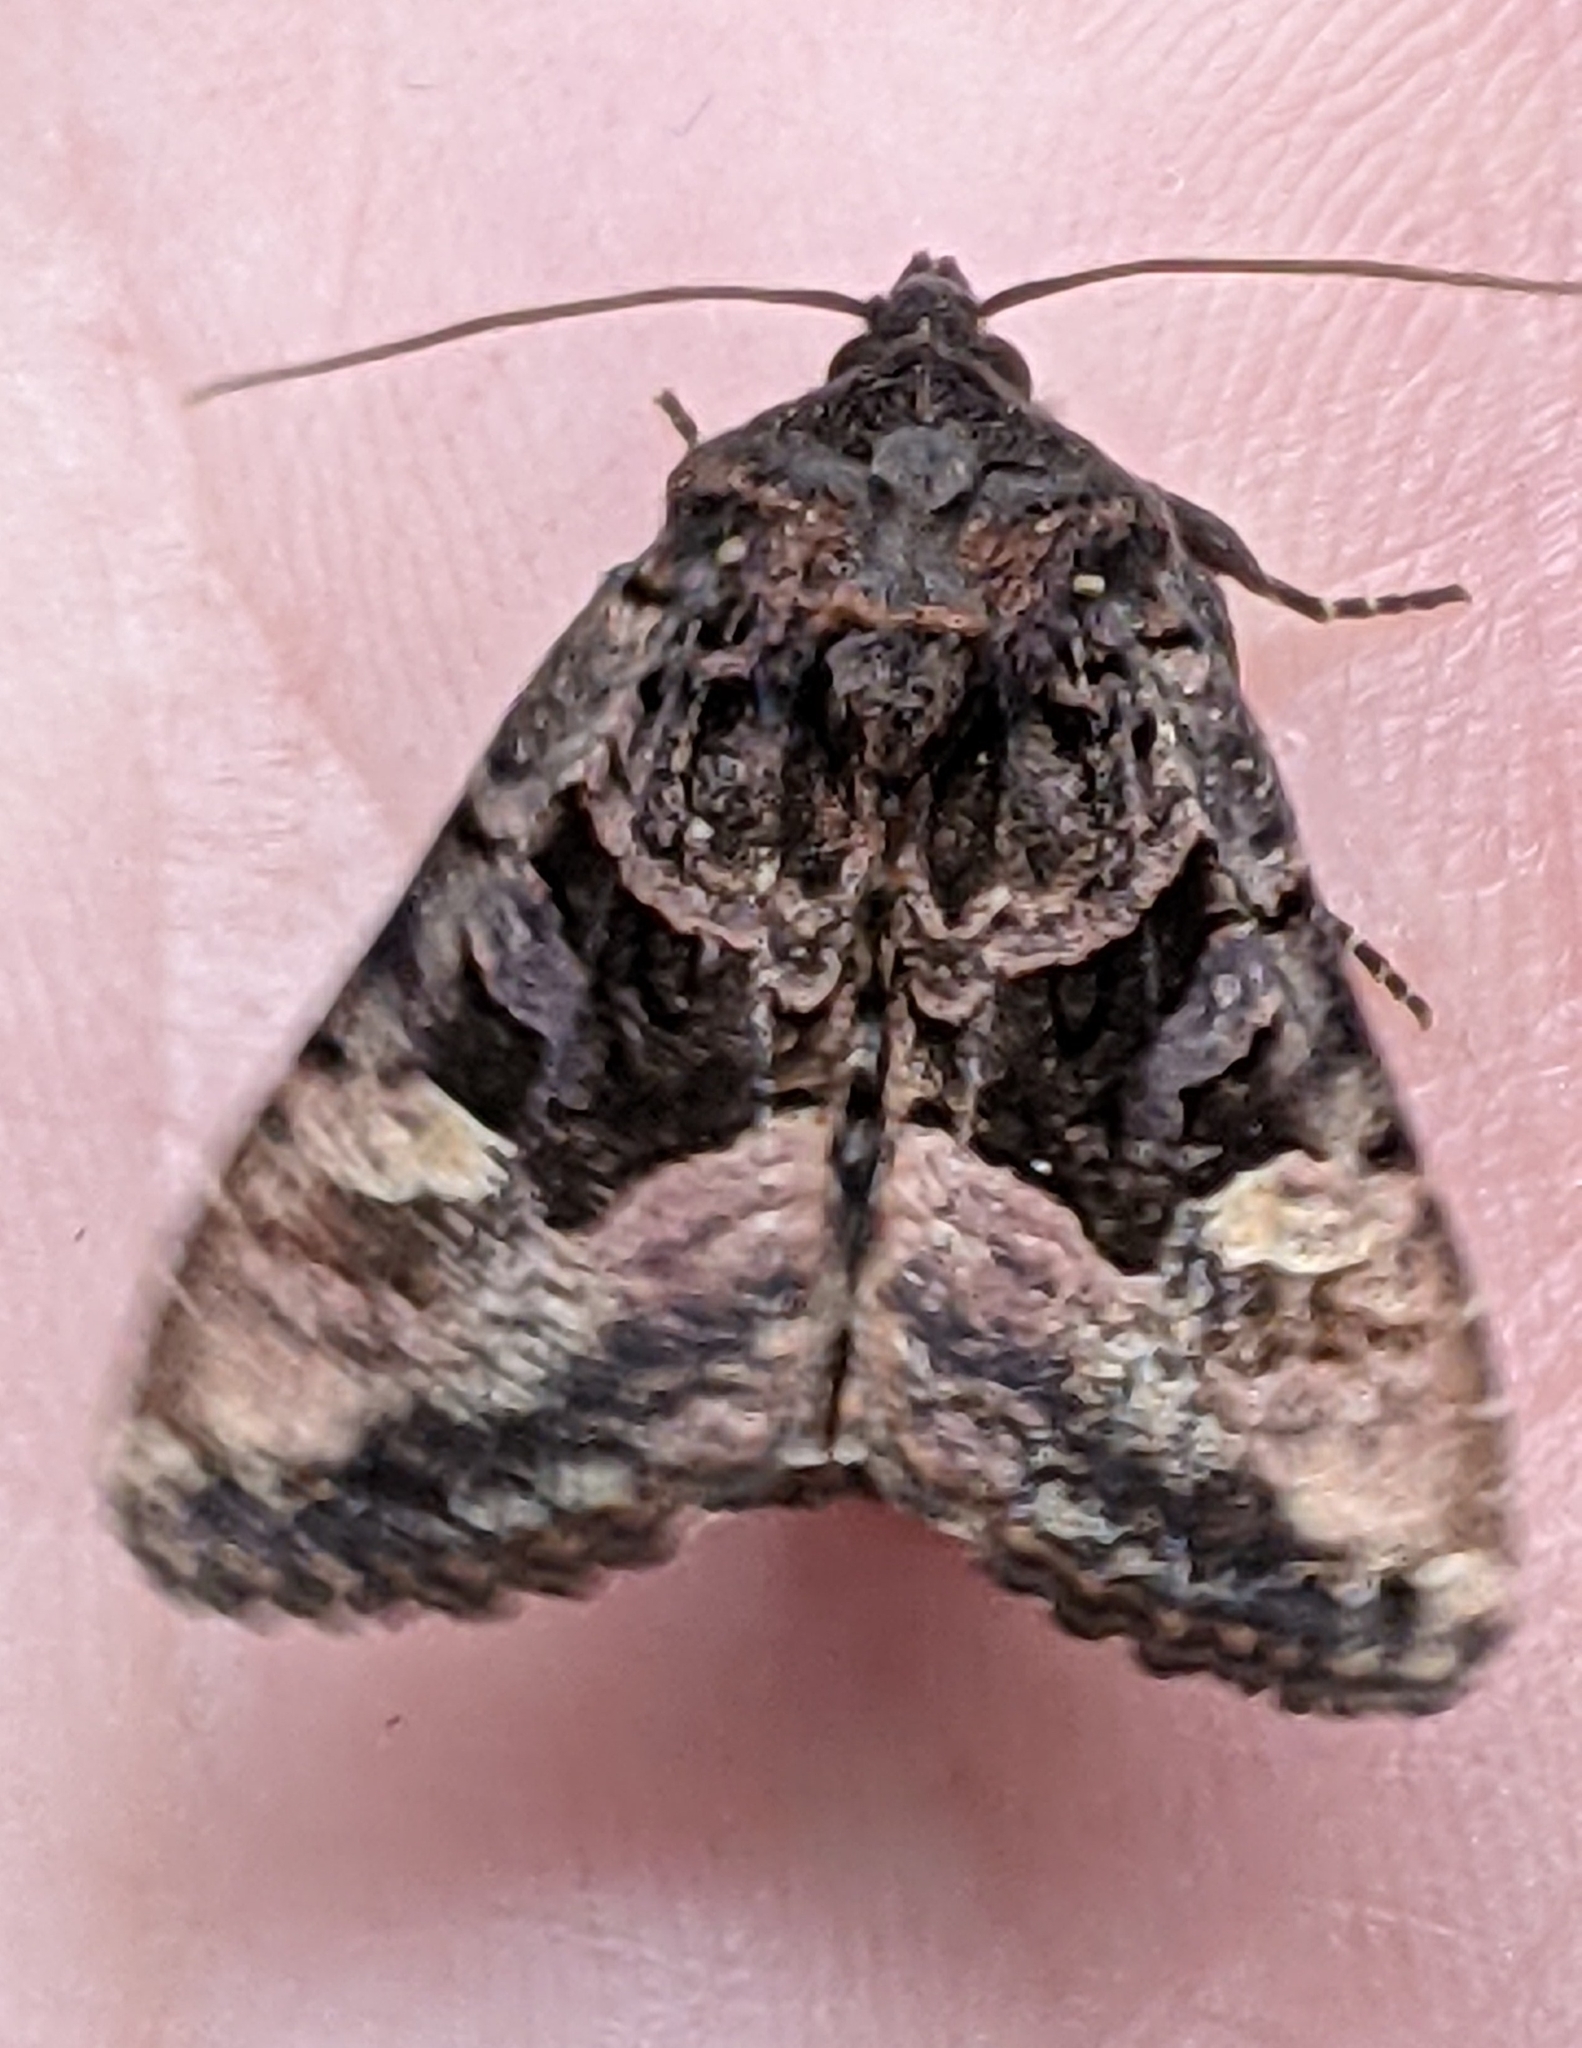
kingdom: Animalia
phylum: Arthropoda
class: Insecta
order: Lepidoptera
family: Noctuidae
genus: Euplexia
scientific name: Euplexia benesimilis
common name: American angle shades
